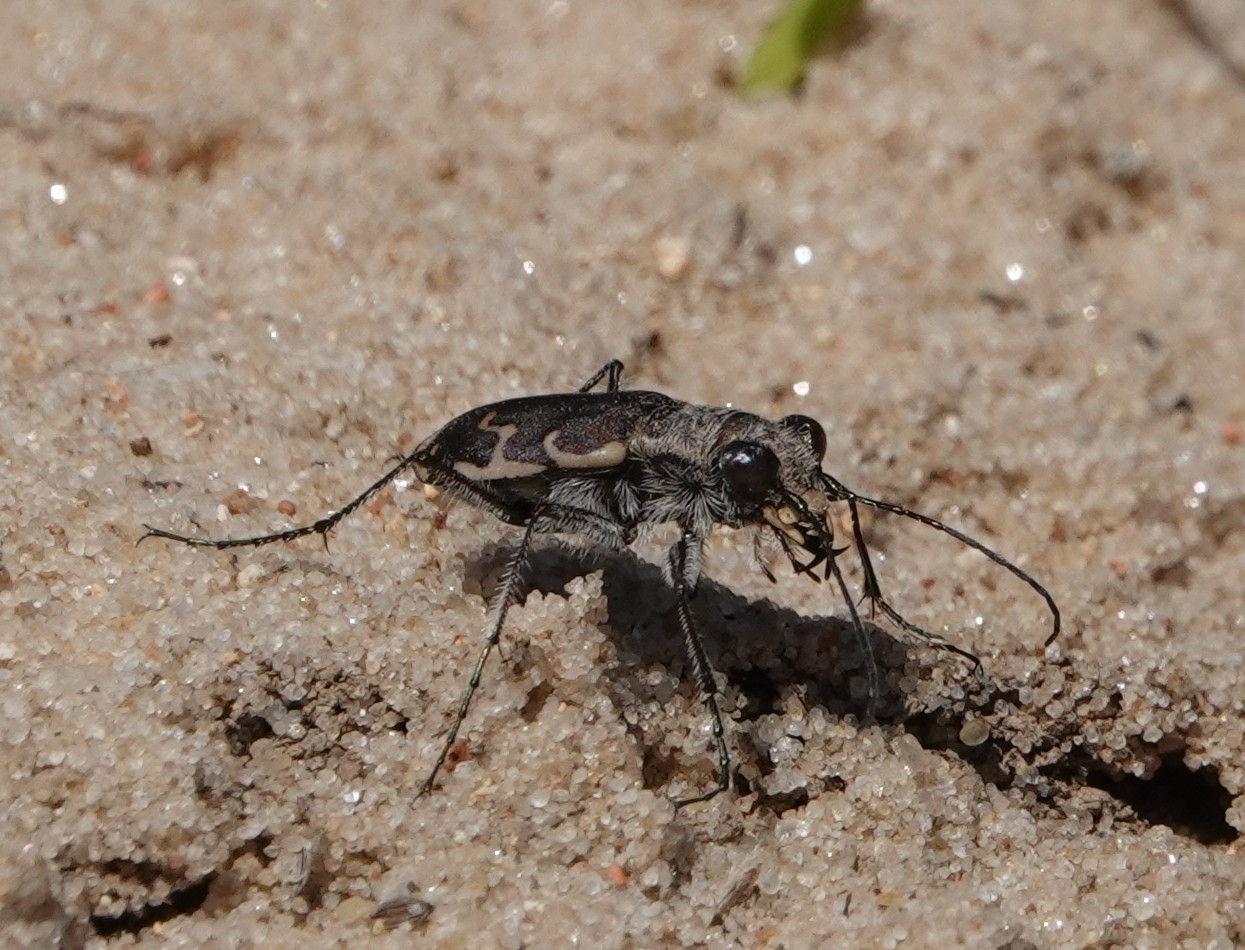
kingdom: Animalia
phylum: Arthropoda
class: Insecta
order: Coleoptera
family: Carabidae
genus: Cicindela
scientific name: Cicindela repanda
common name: Bronzed tiger beetle
